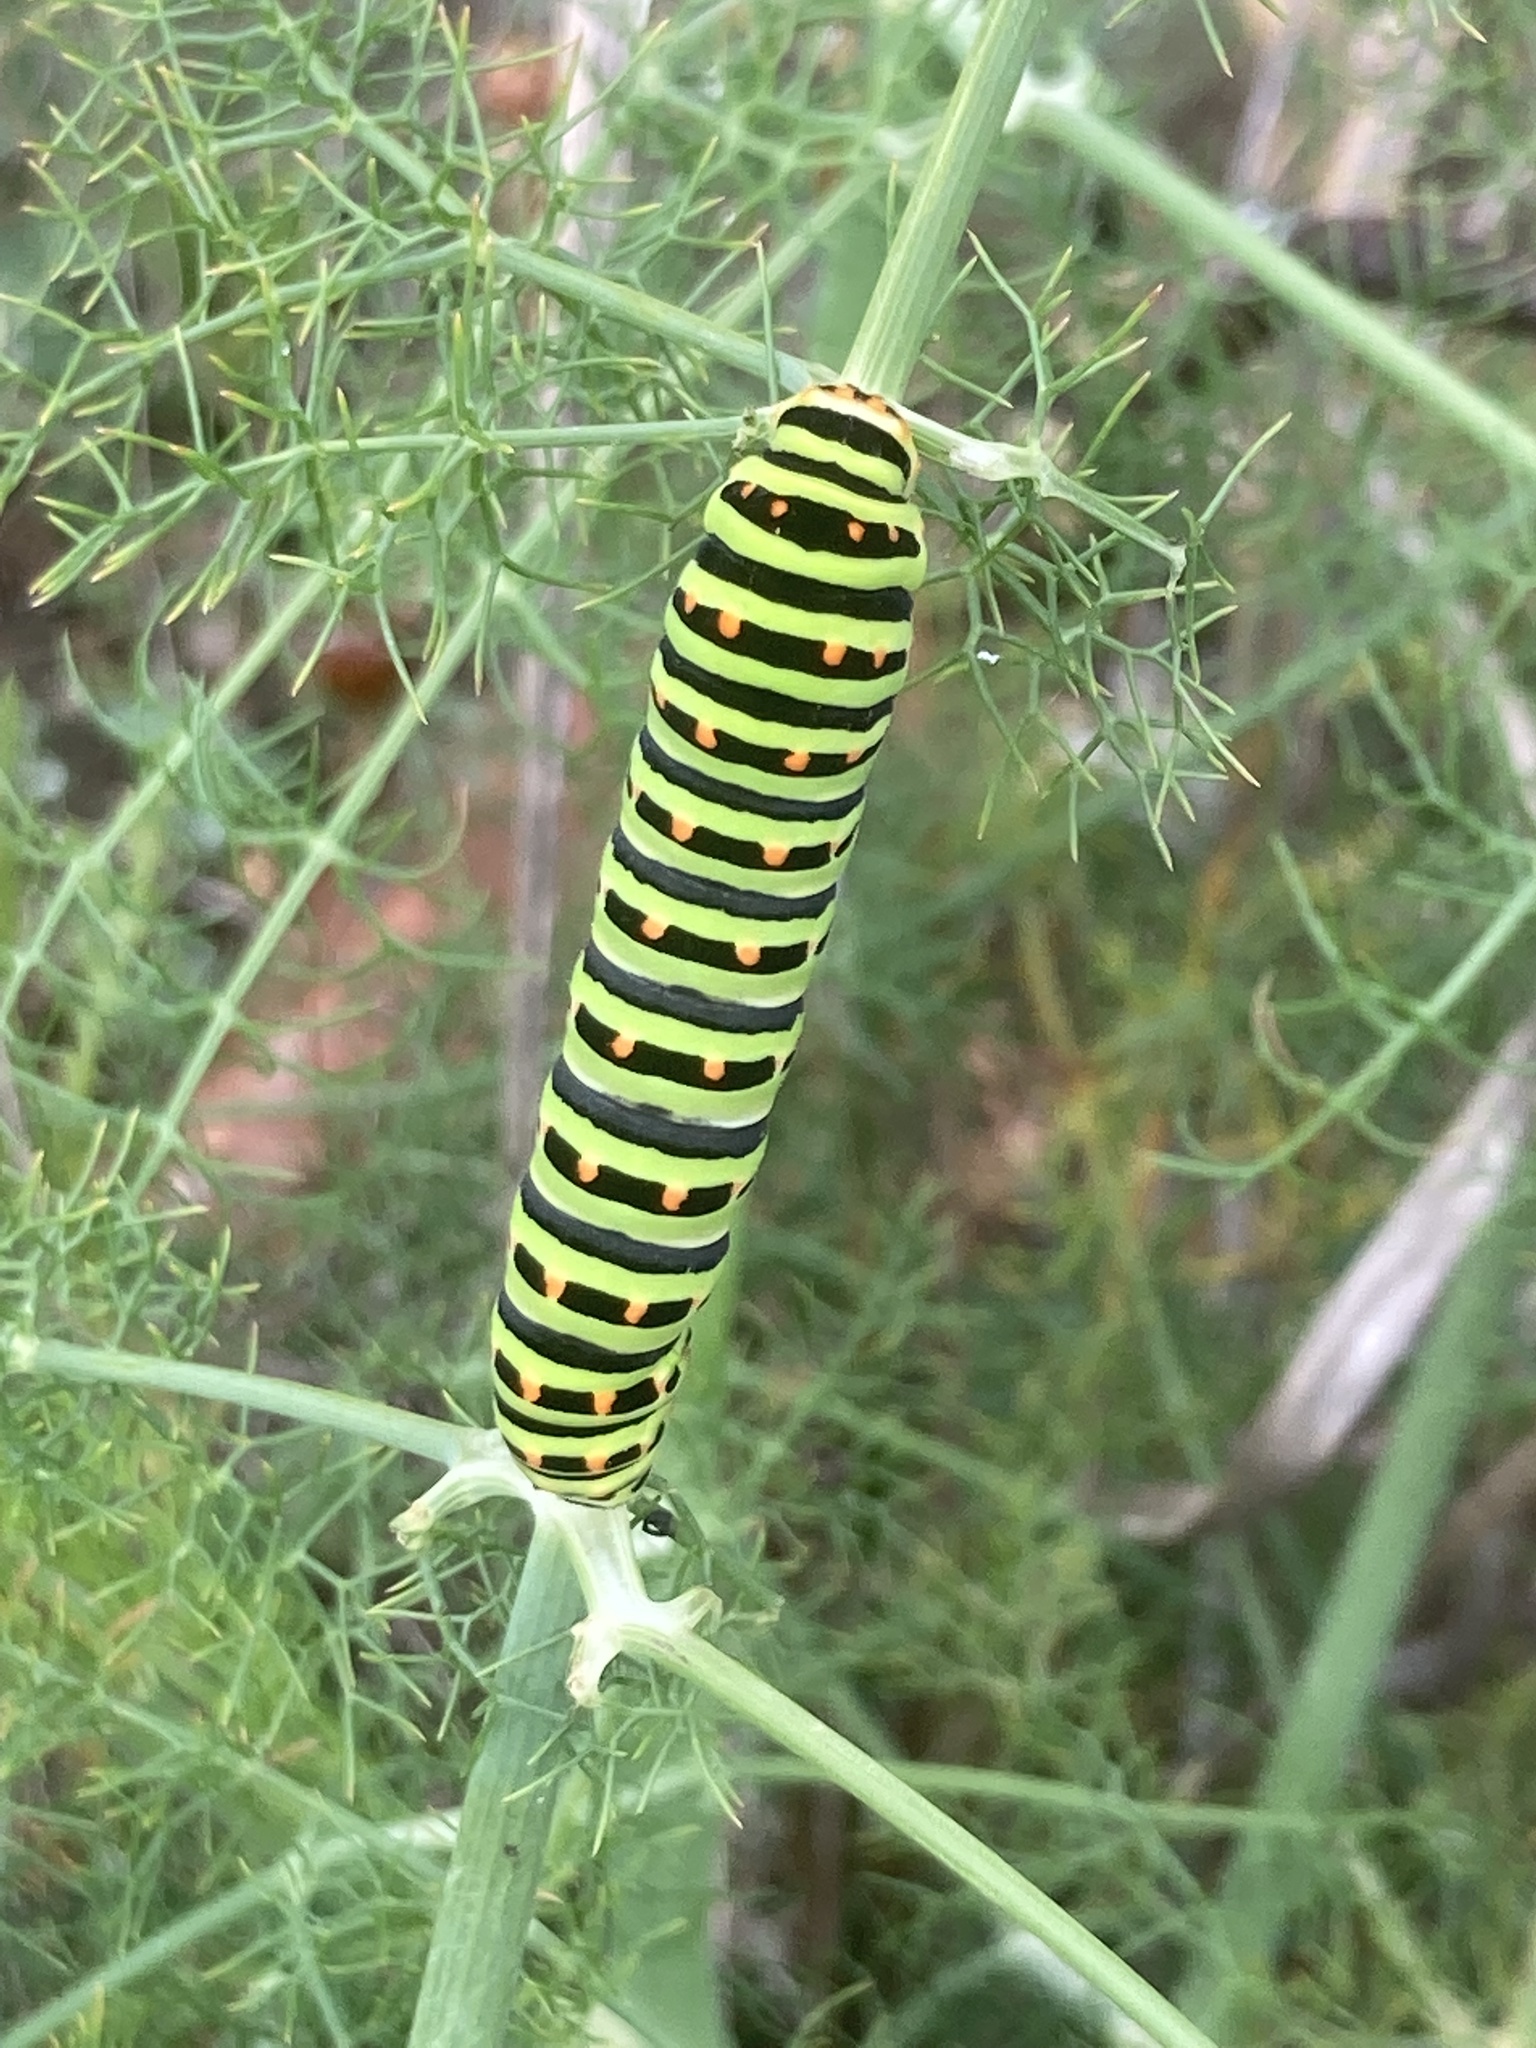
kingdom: Plantae
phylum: Tracheophyta
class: Magnoliopsida
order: Apiales
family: Apiaceae
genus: Foeniculum
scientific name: Foeniculum vulgare
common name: Fennel
